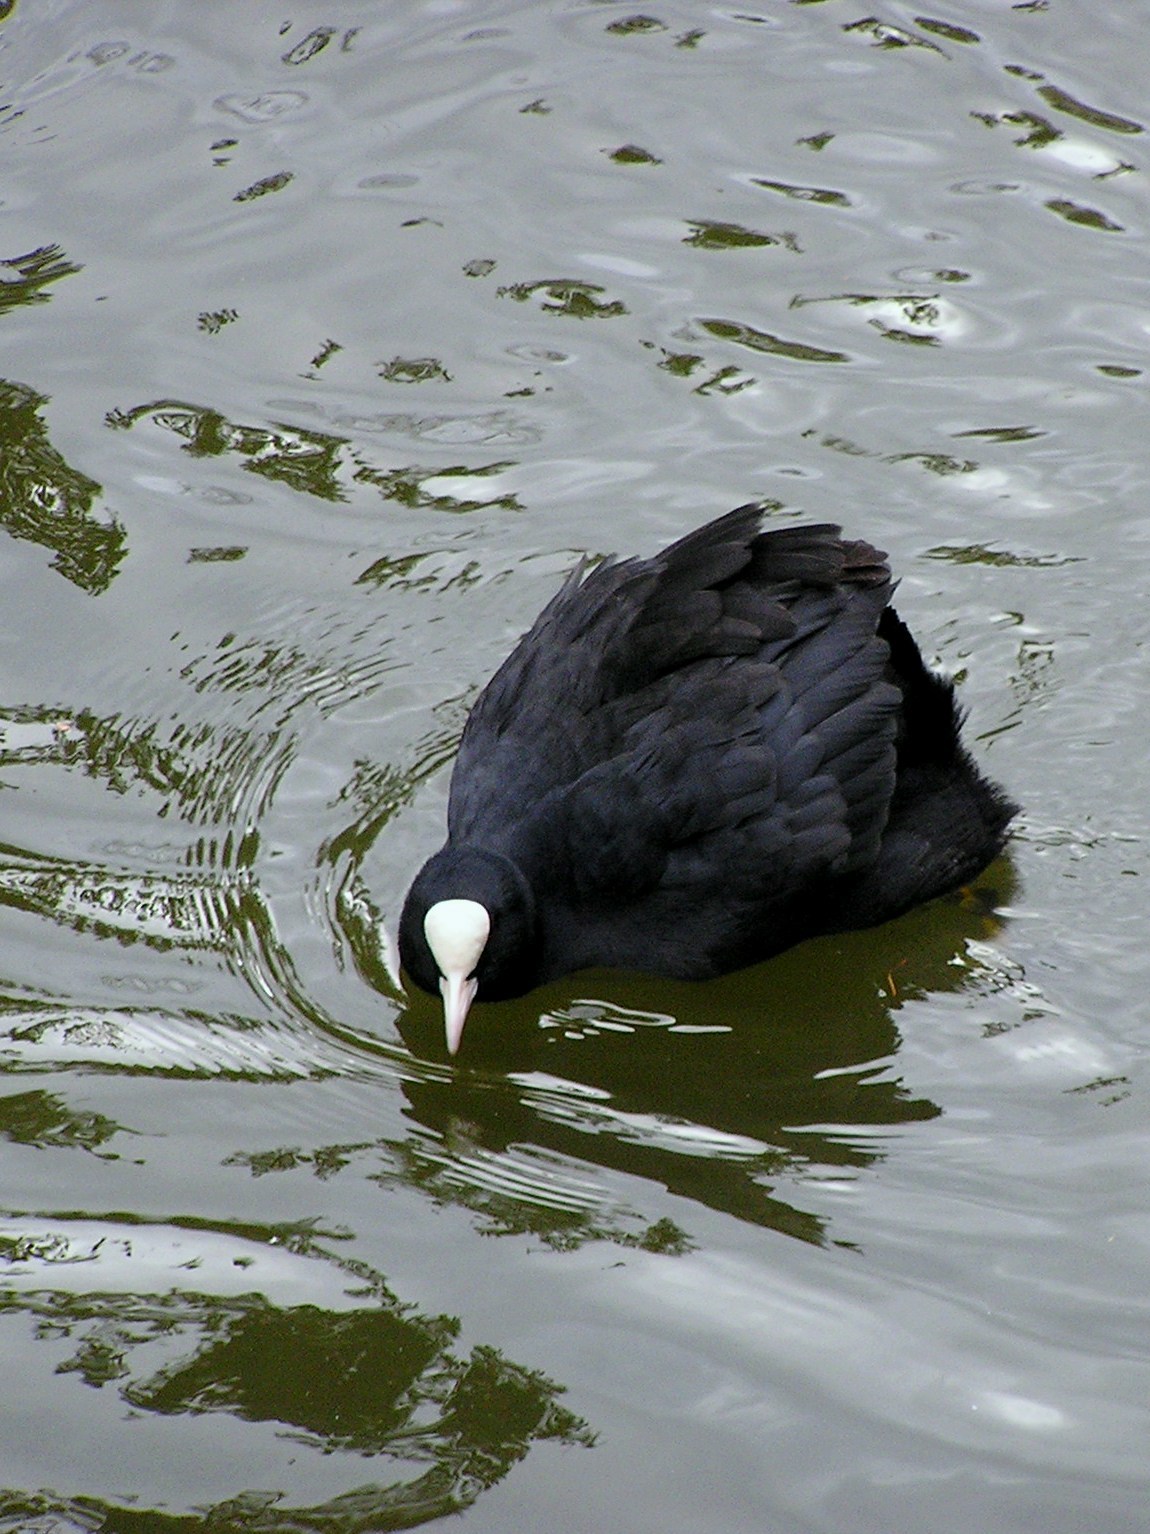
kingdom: Animalia
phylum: Chordata
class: Aves
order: Gruiformes
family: Rallidae
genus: Fulica
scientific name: Fulica atra
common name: Eurasian coot
